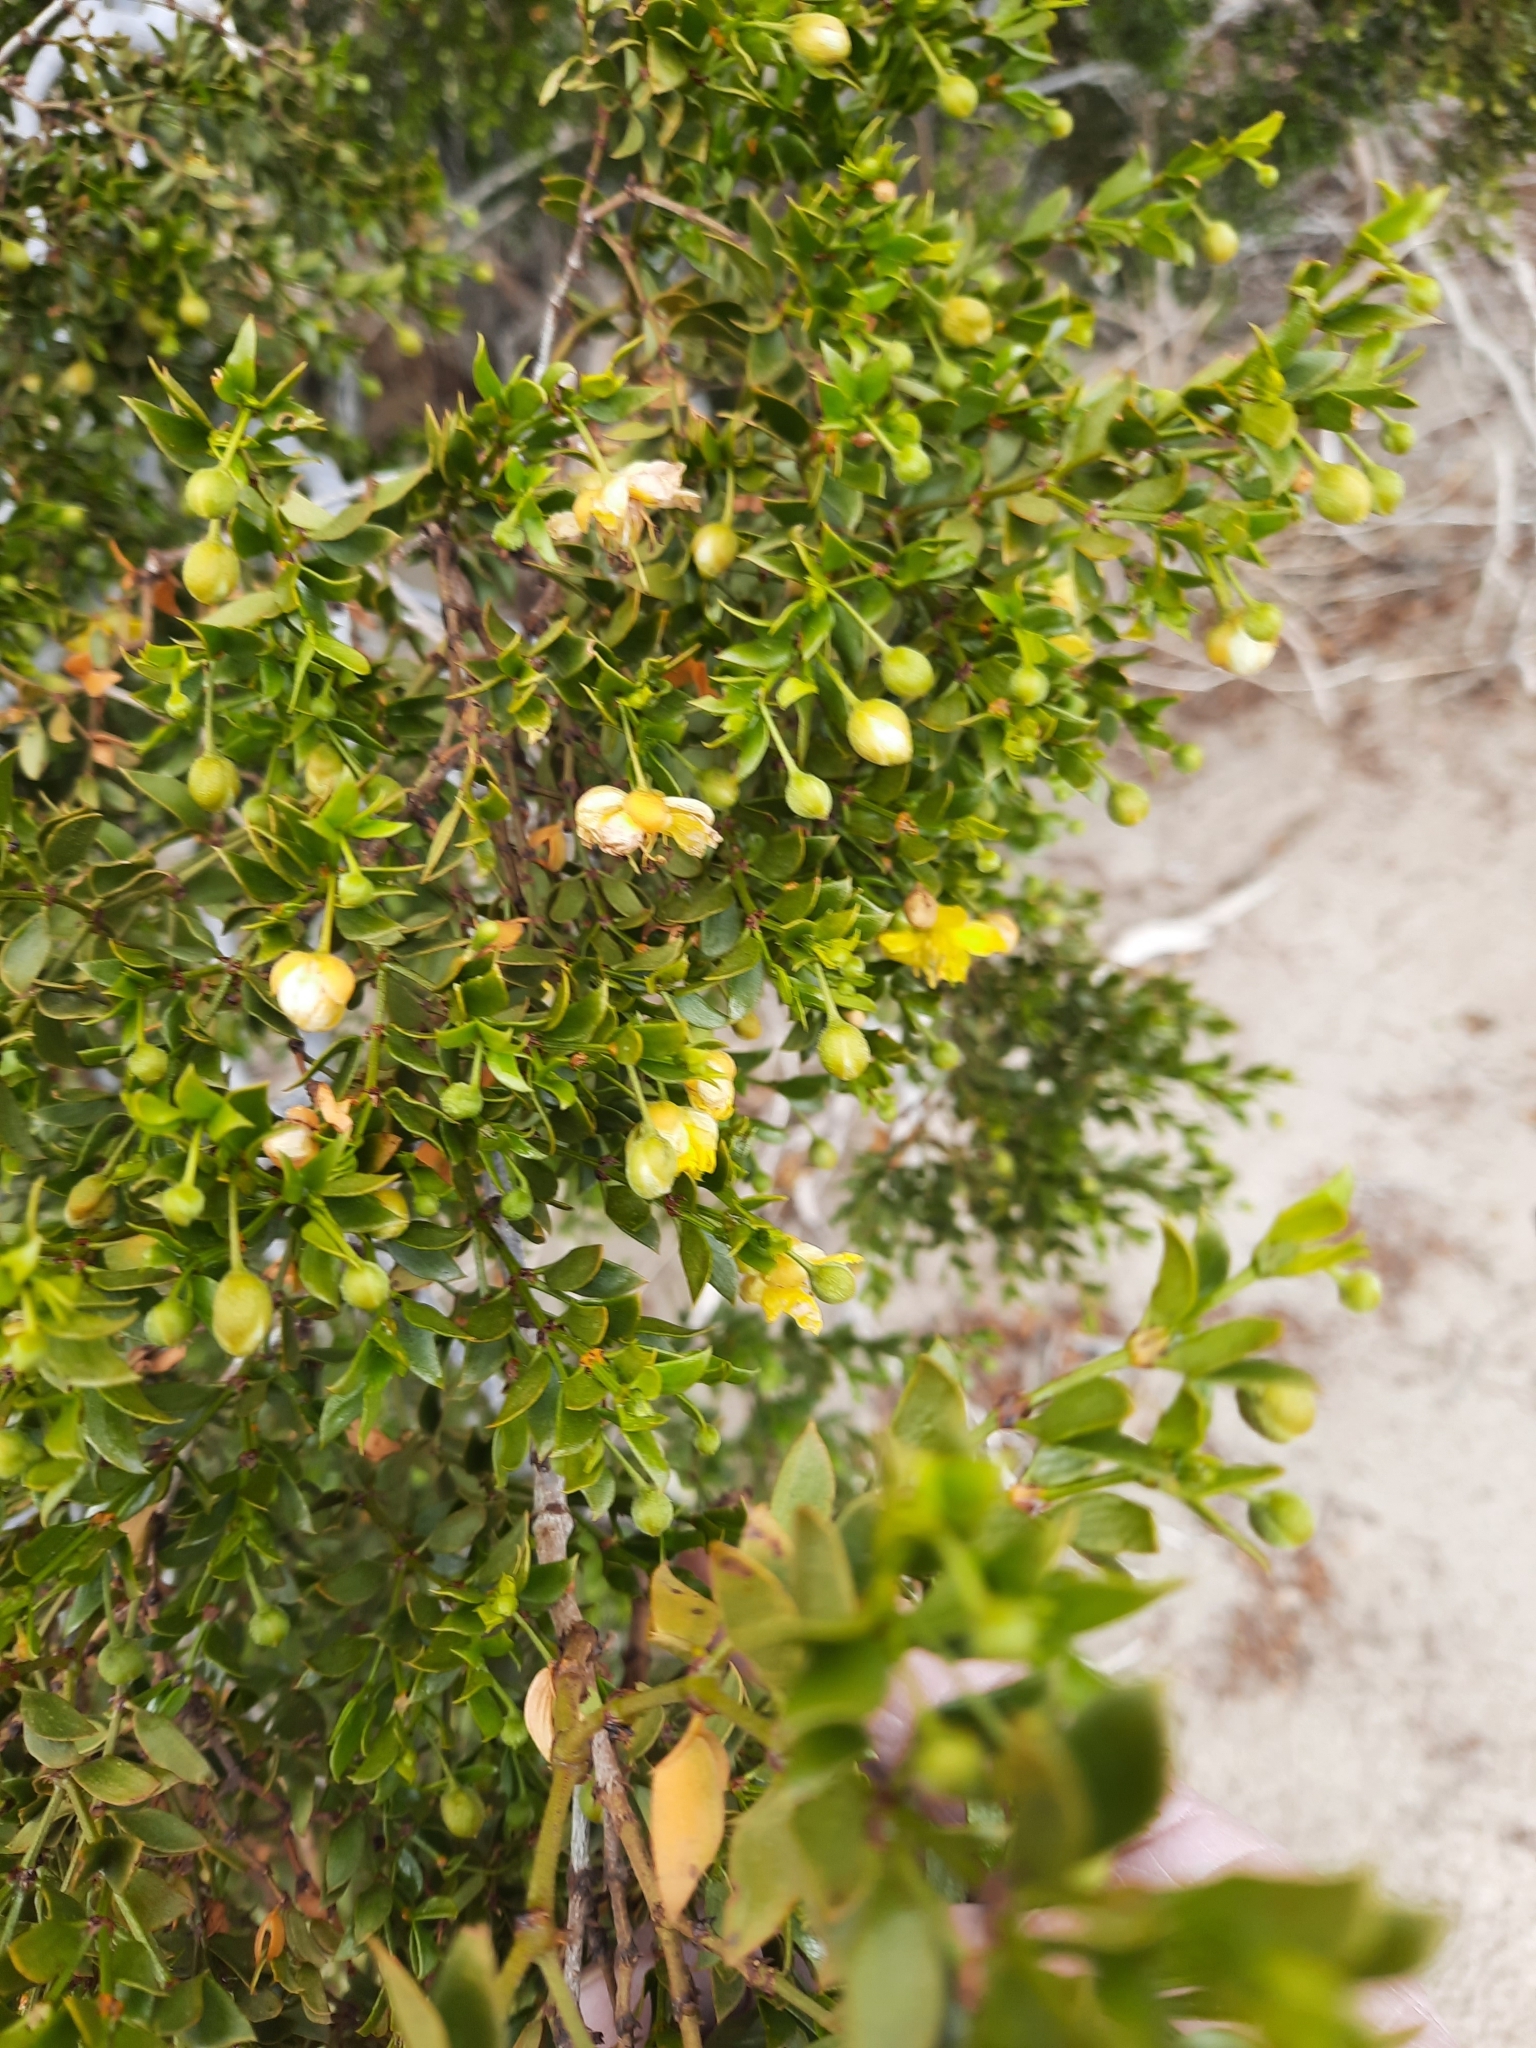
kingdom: Plantae
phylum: Tracheophyta
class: Magnoliopsida
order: Zygophyllales
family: Zygophyllaceae
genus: Larrea
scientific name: Larrea tridentata
